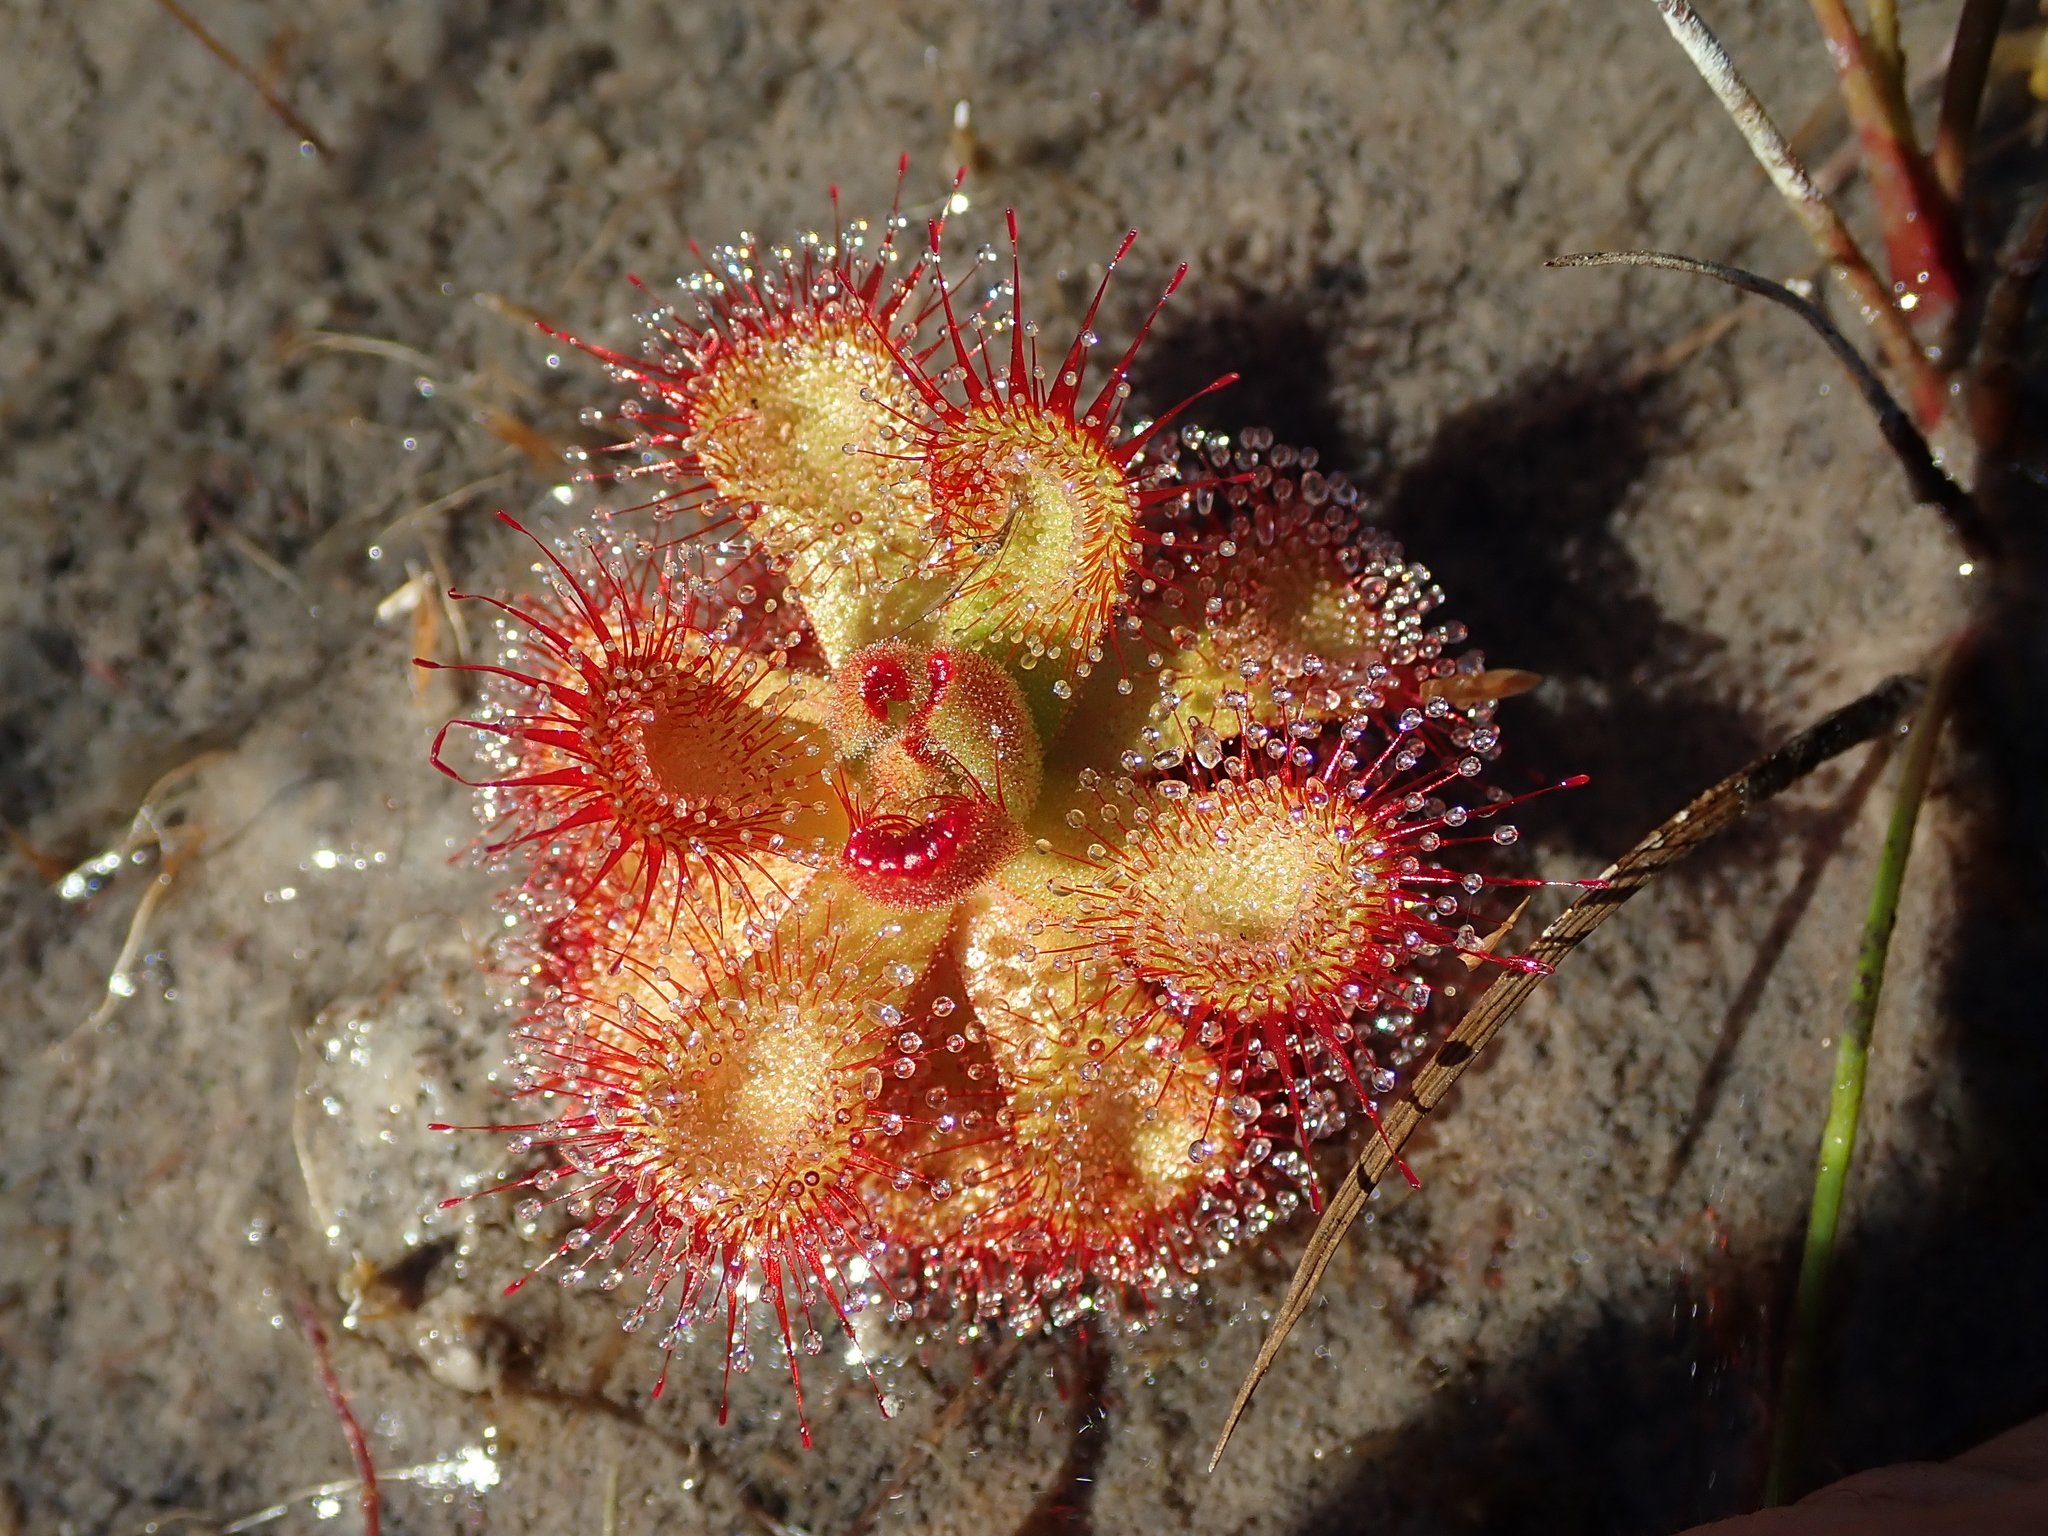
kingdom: Plantae
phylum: Tracheophyta
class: Magnoliopsida
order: Caryophyllales
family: Droseraceae
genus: Drosera
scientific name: Drosera sessilifolia
